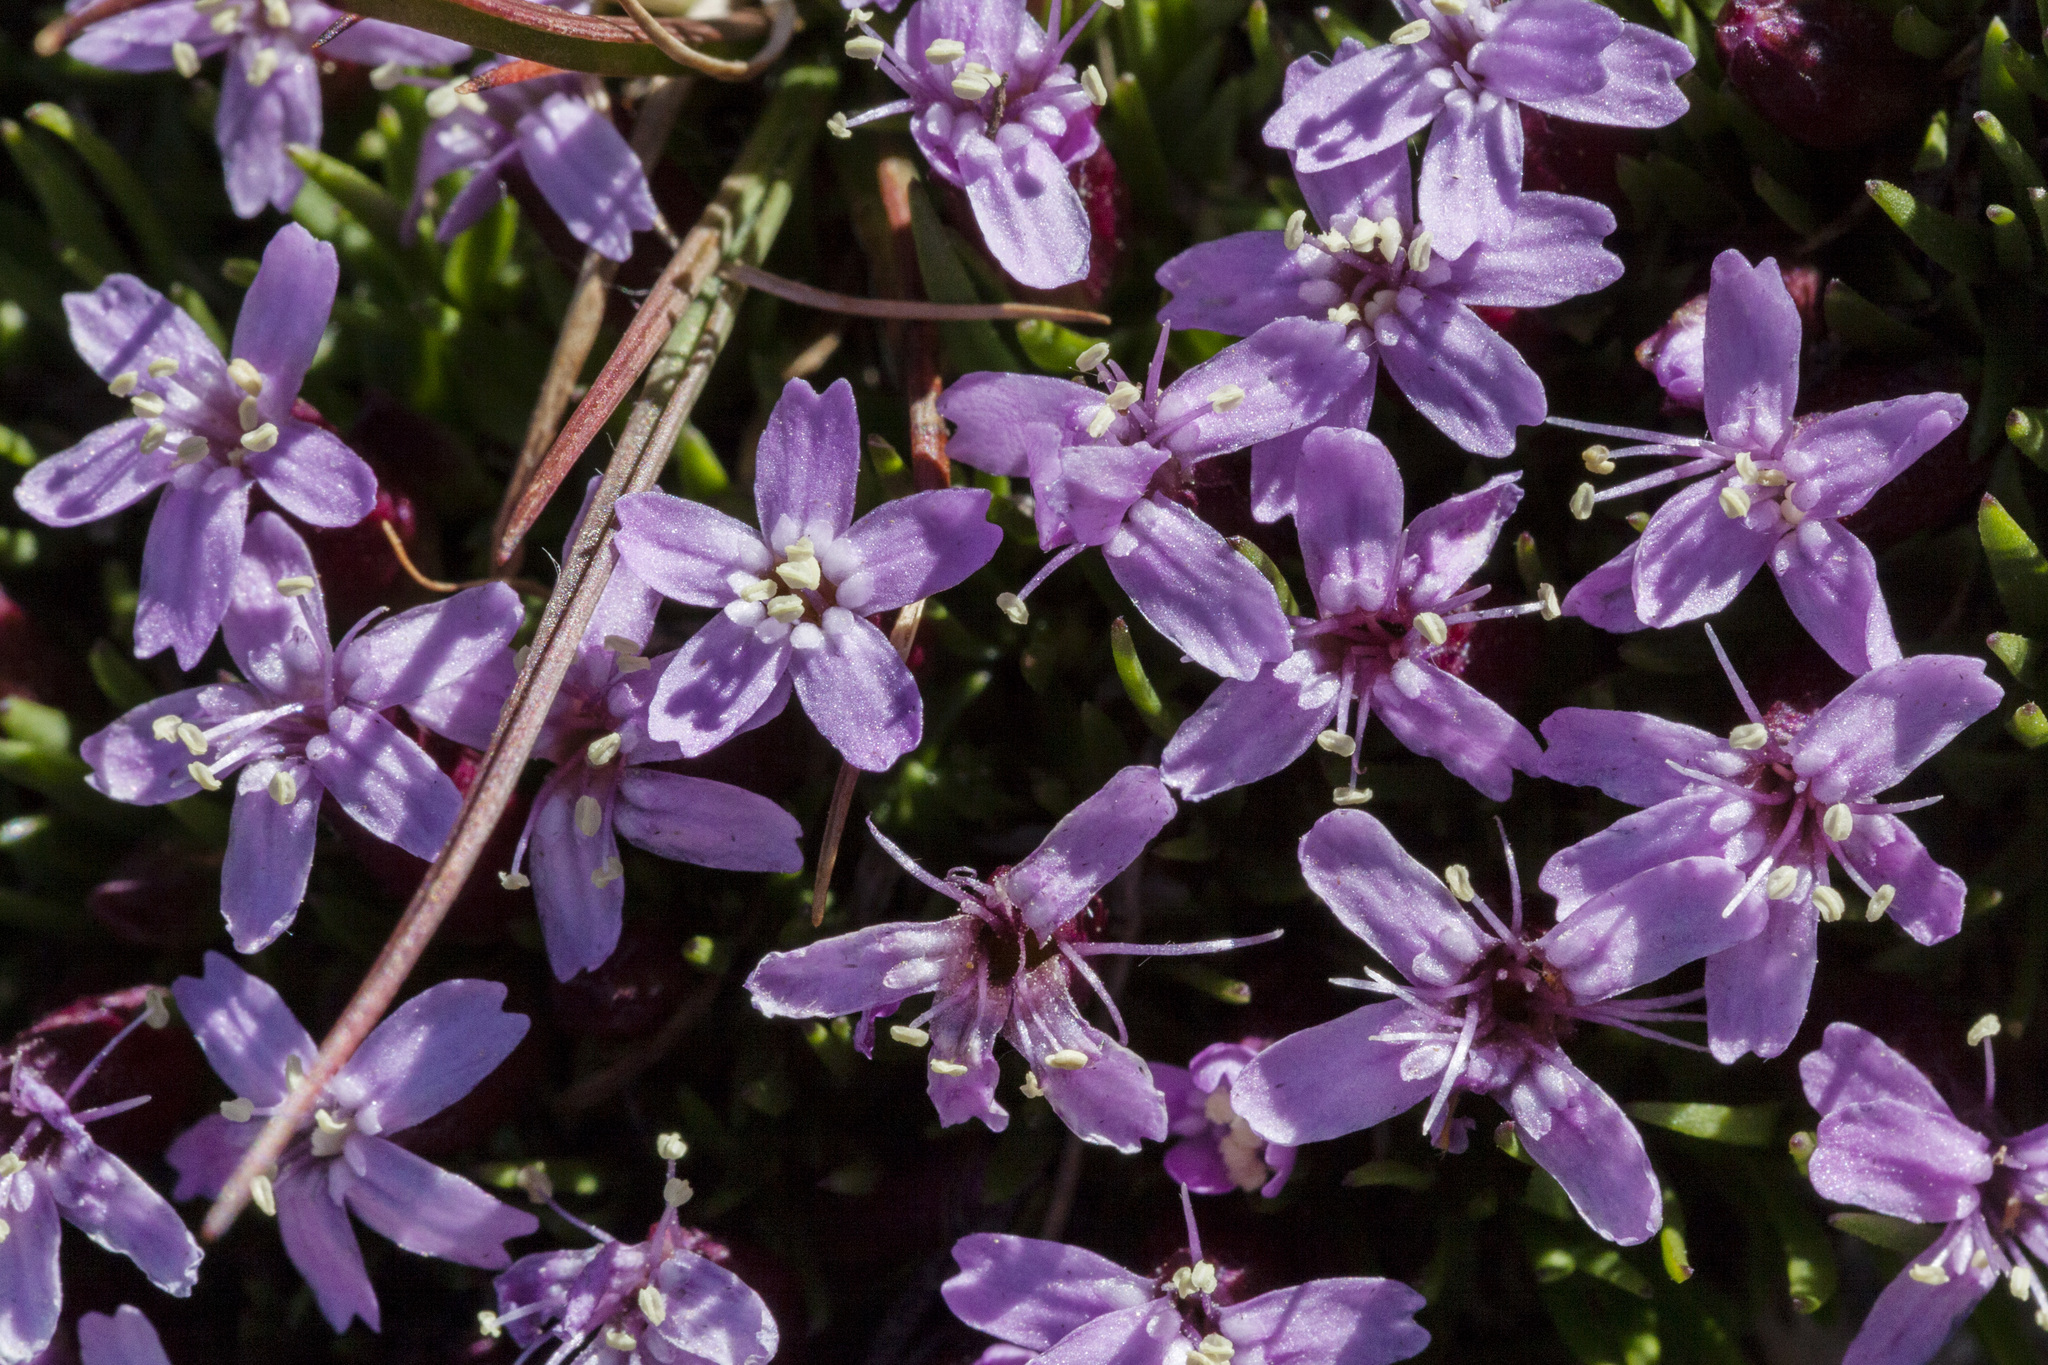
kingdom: Plantae
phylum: Tracheophyta
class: Magnoliopsida
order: Caryophyllales
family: Caryophyllaceae
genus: Silene
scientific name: Silene acaulis
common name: Moss campion
